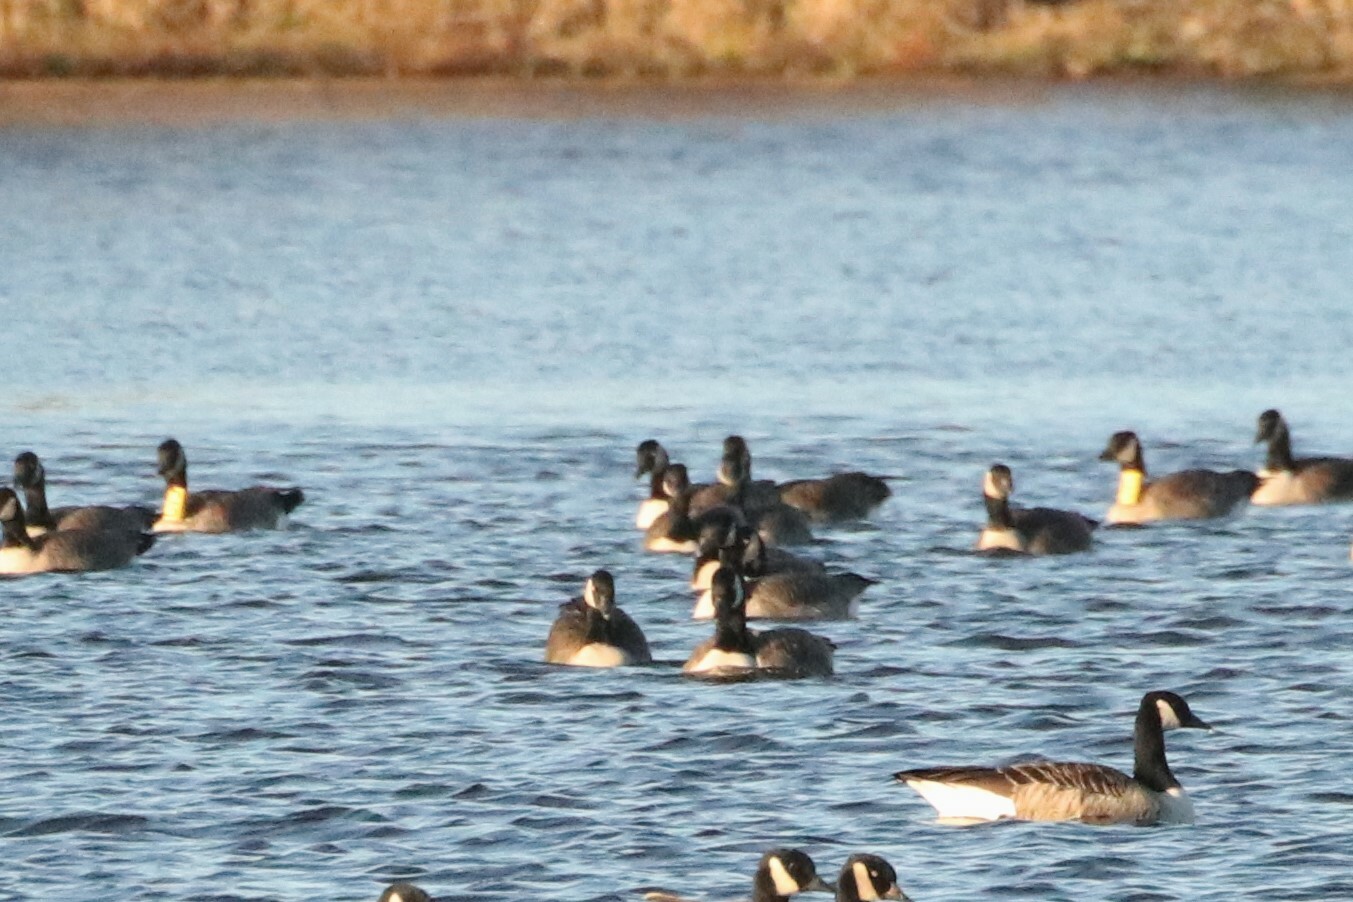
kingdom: Animalia
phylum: Chordata
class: Aves
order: Anseriformes
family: Anatidae
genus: Branta
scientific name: Branta canadensis
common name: Canada goose
